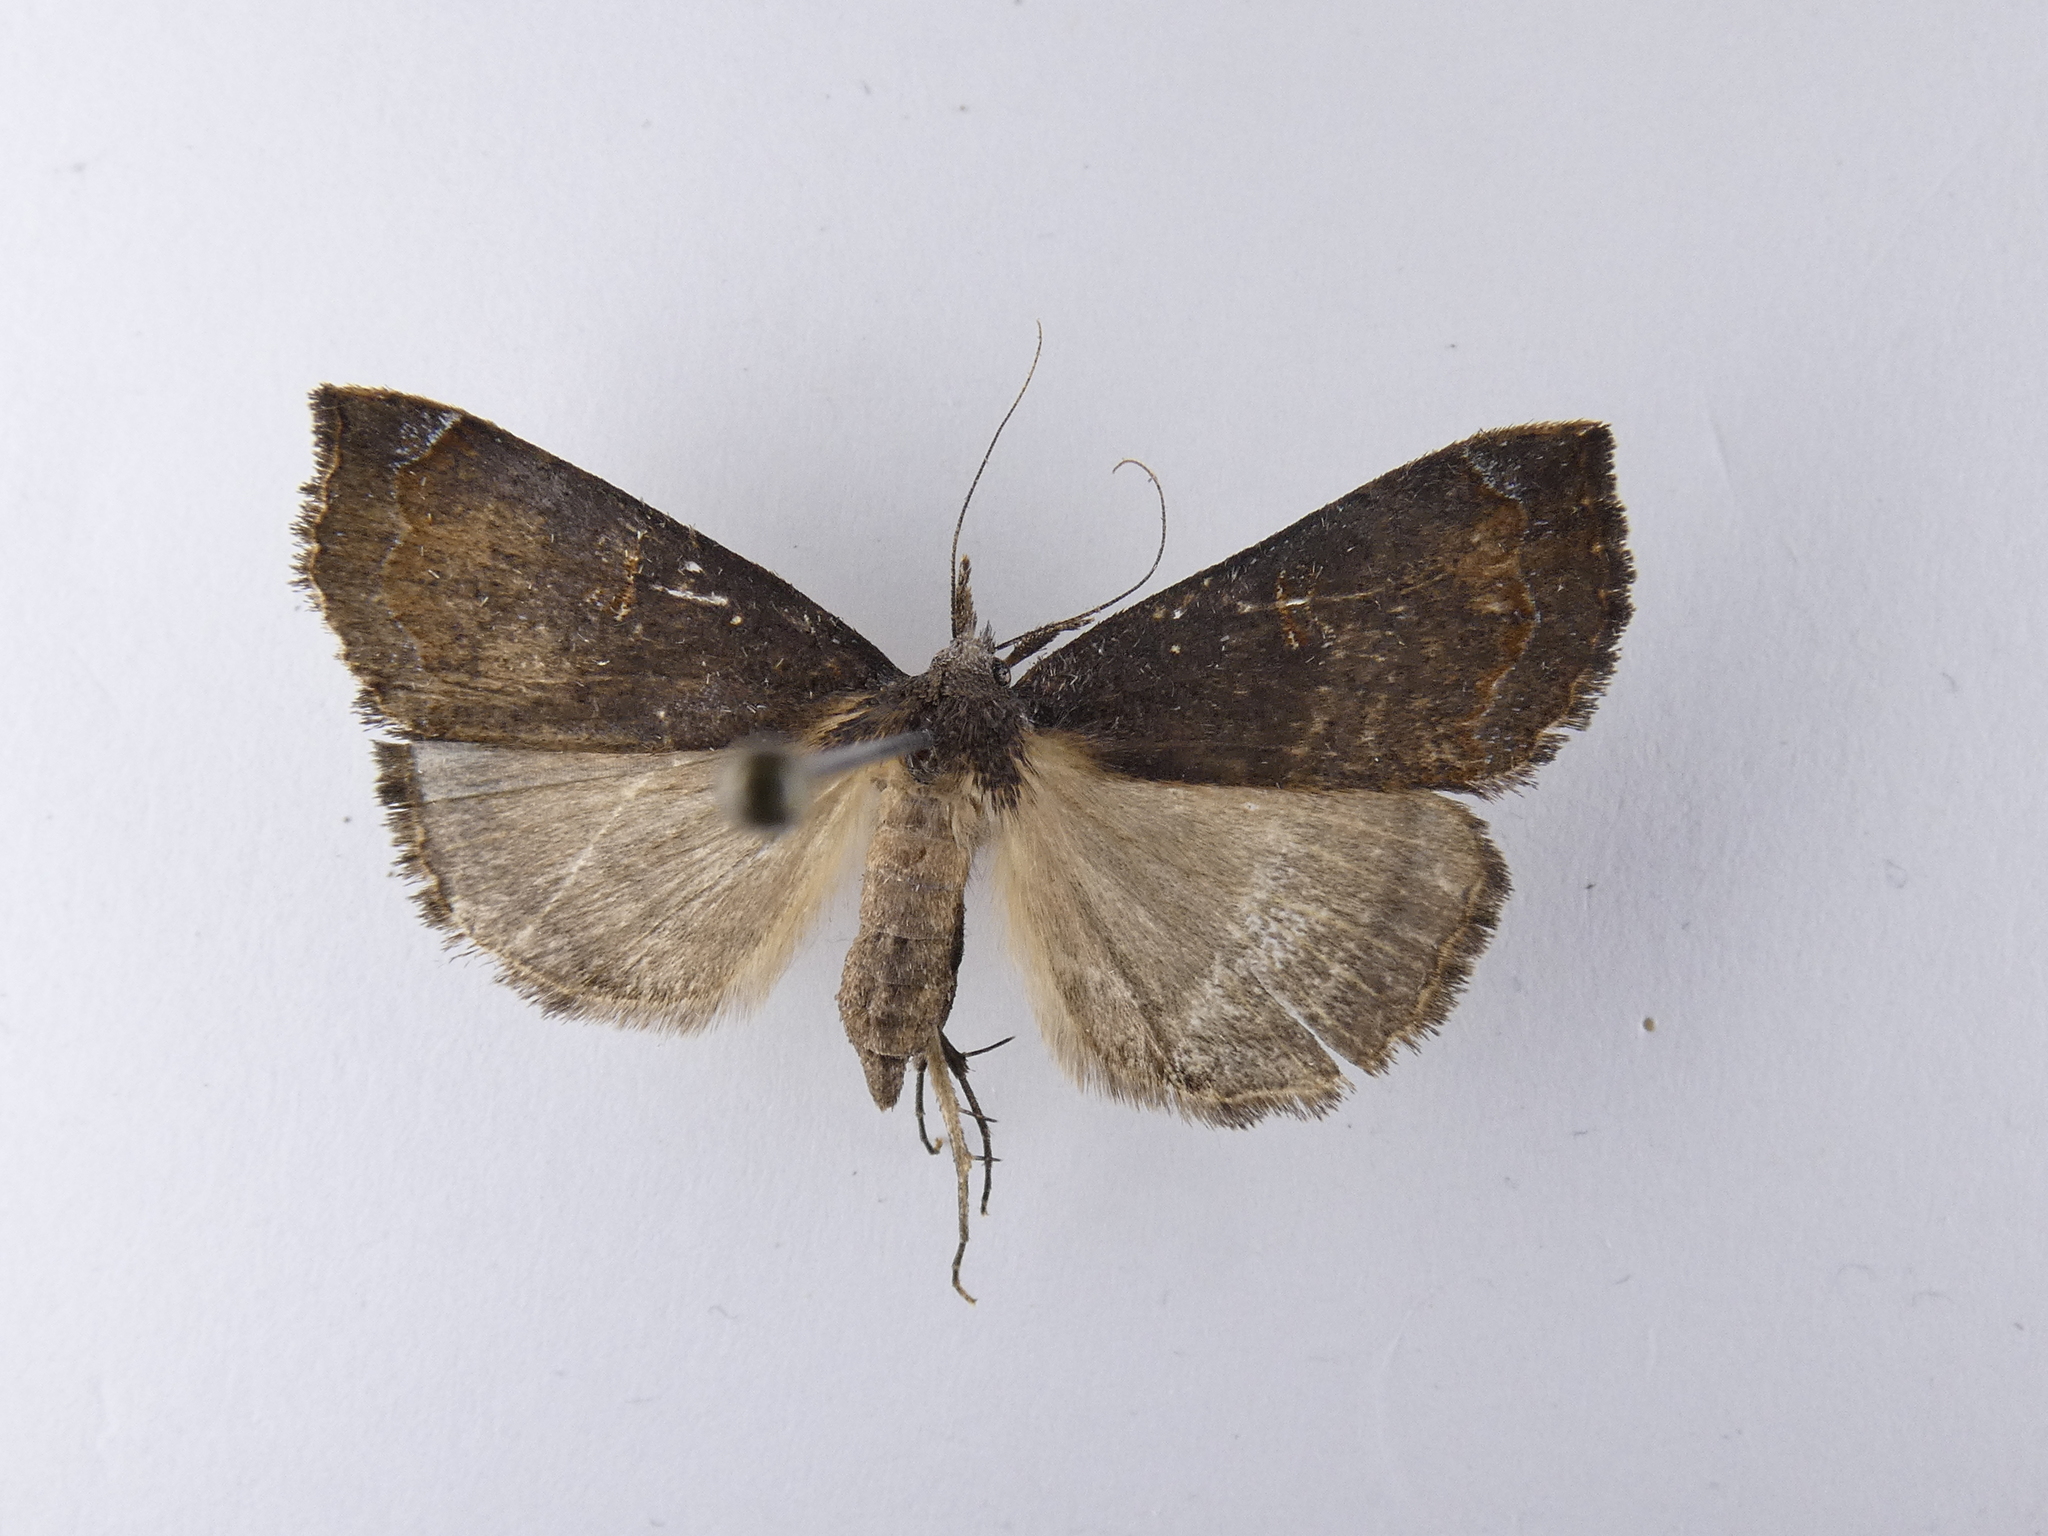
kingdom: Animalia
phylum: Arthropoda
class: Insecta
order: Lepidoptera
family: Erebidae
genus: Rhapsa
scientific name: Rhapsa scotosialis
